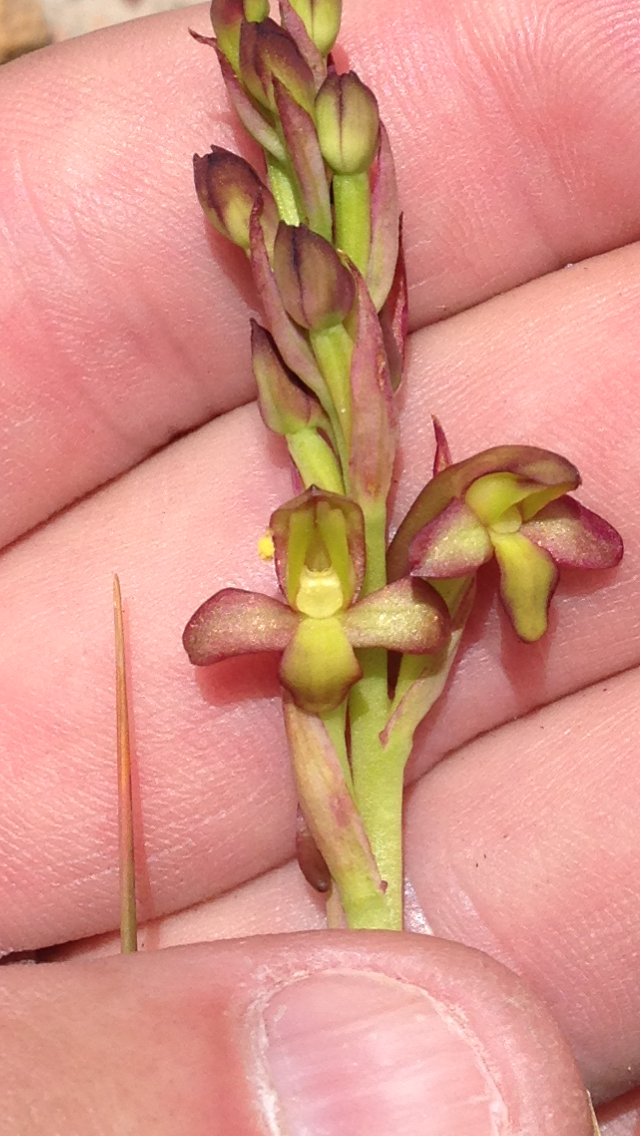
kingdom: Plantae
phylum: Tracheophyta
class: Liliopsida
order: Asparagales
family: Orchidaceae
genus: Disa
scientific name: Disa bolusiana
